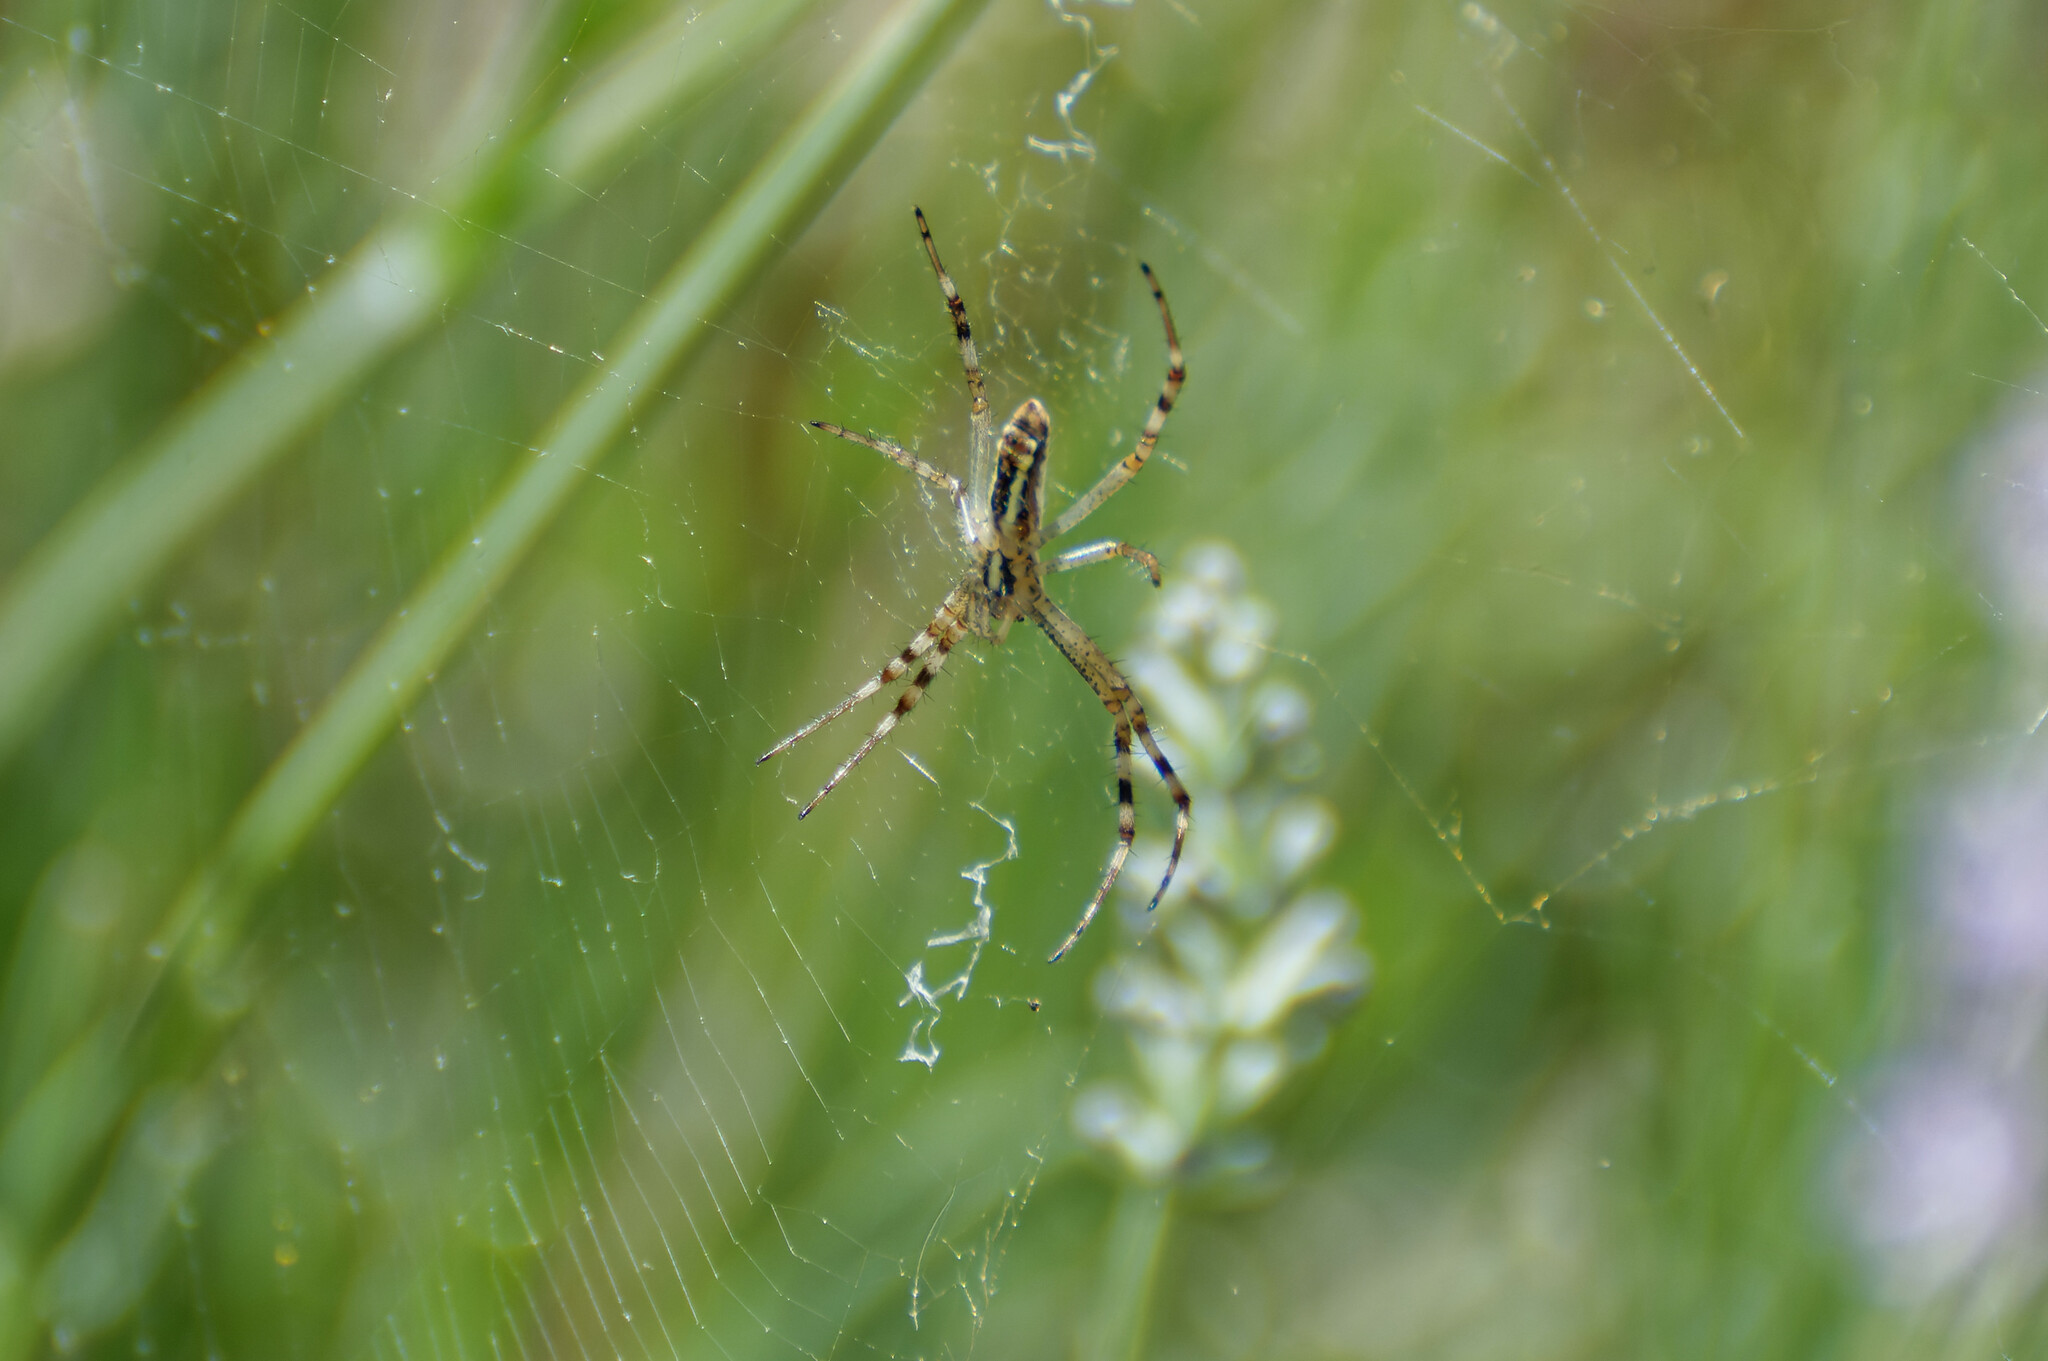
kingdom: Animalia
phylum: Arthropoda
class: Arachnida
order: Araneae
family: Araneidae
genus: Argiope
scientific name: Argiope bruennichi
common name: Wasp spider
